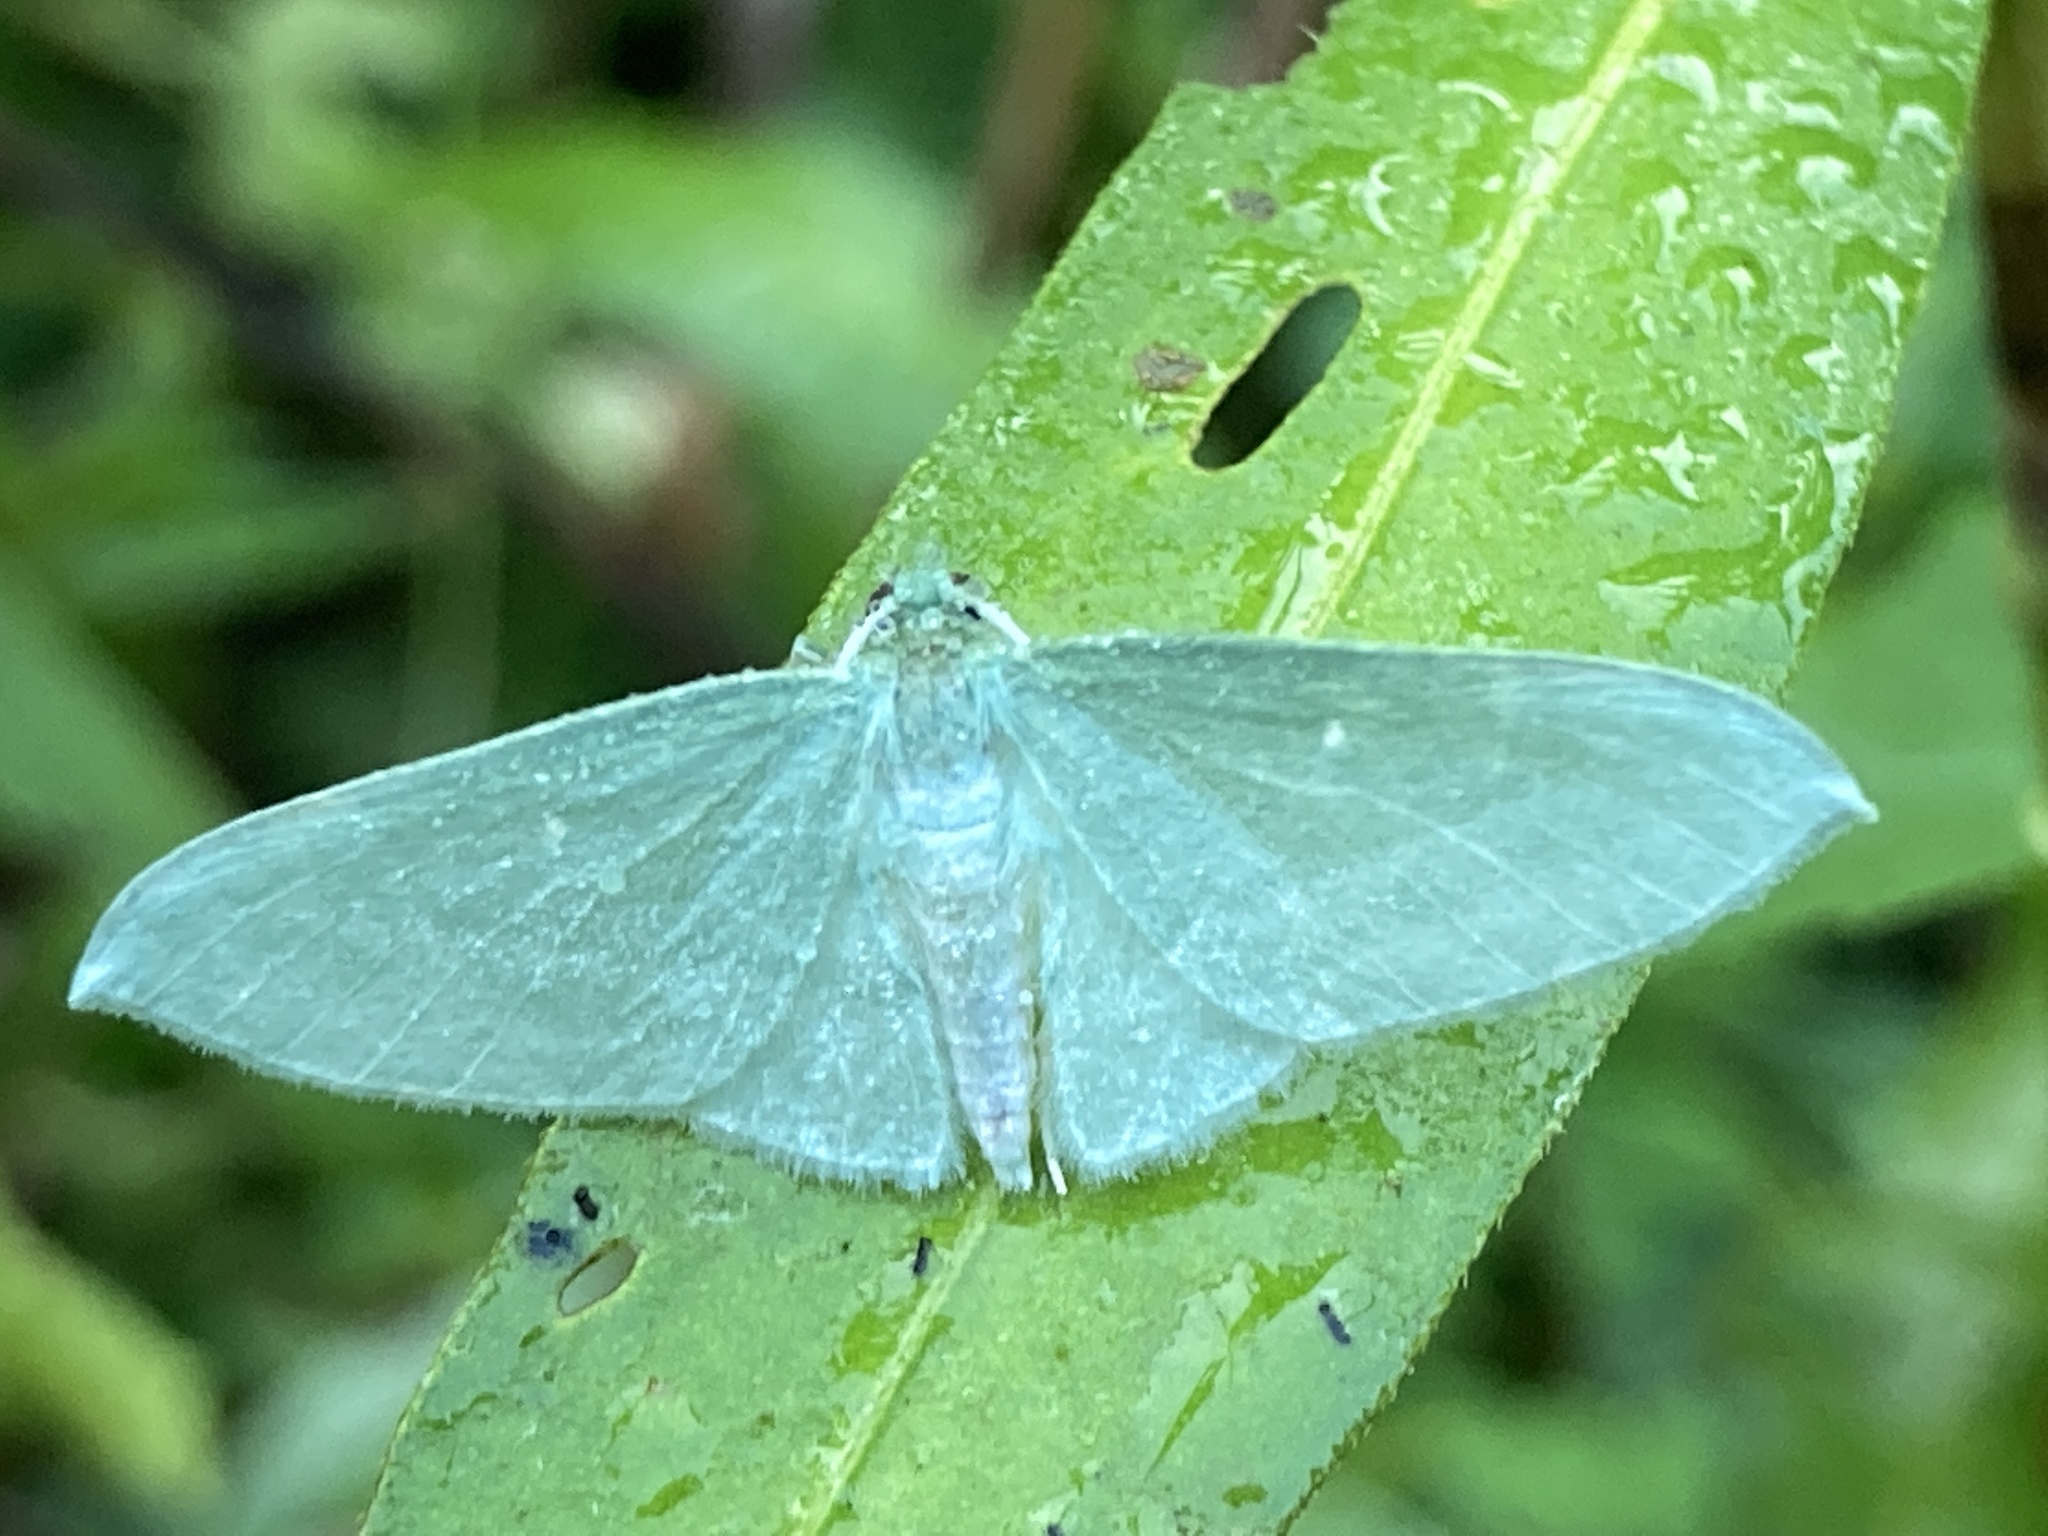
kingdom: Animalia
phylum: Arthropoda
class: Insecta
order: Lepidoptera
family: Geometridae
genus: Dyspteris
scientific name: Dyspteris abortivaria
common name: Bad-wing
